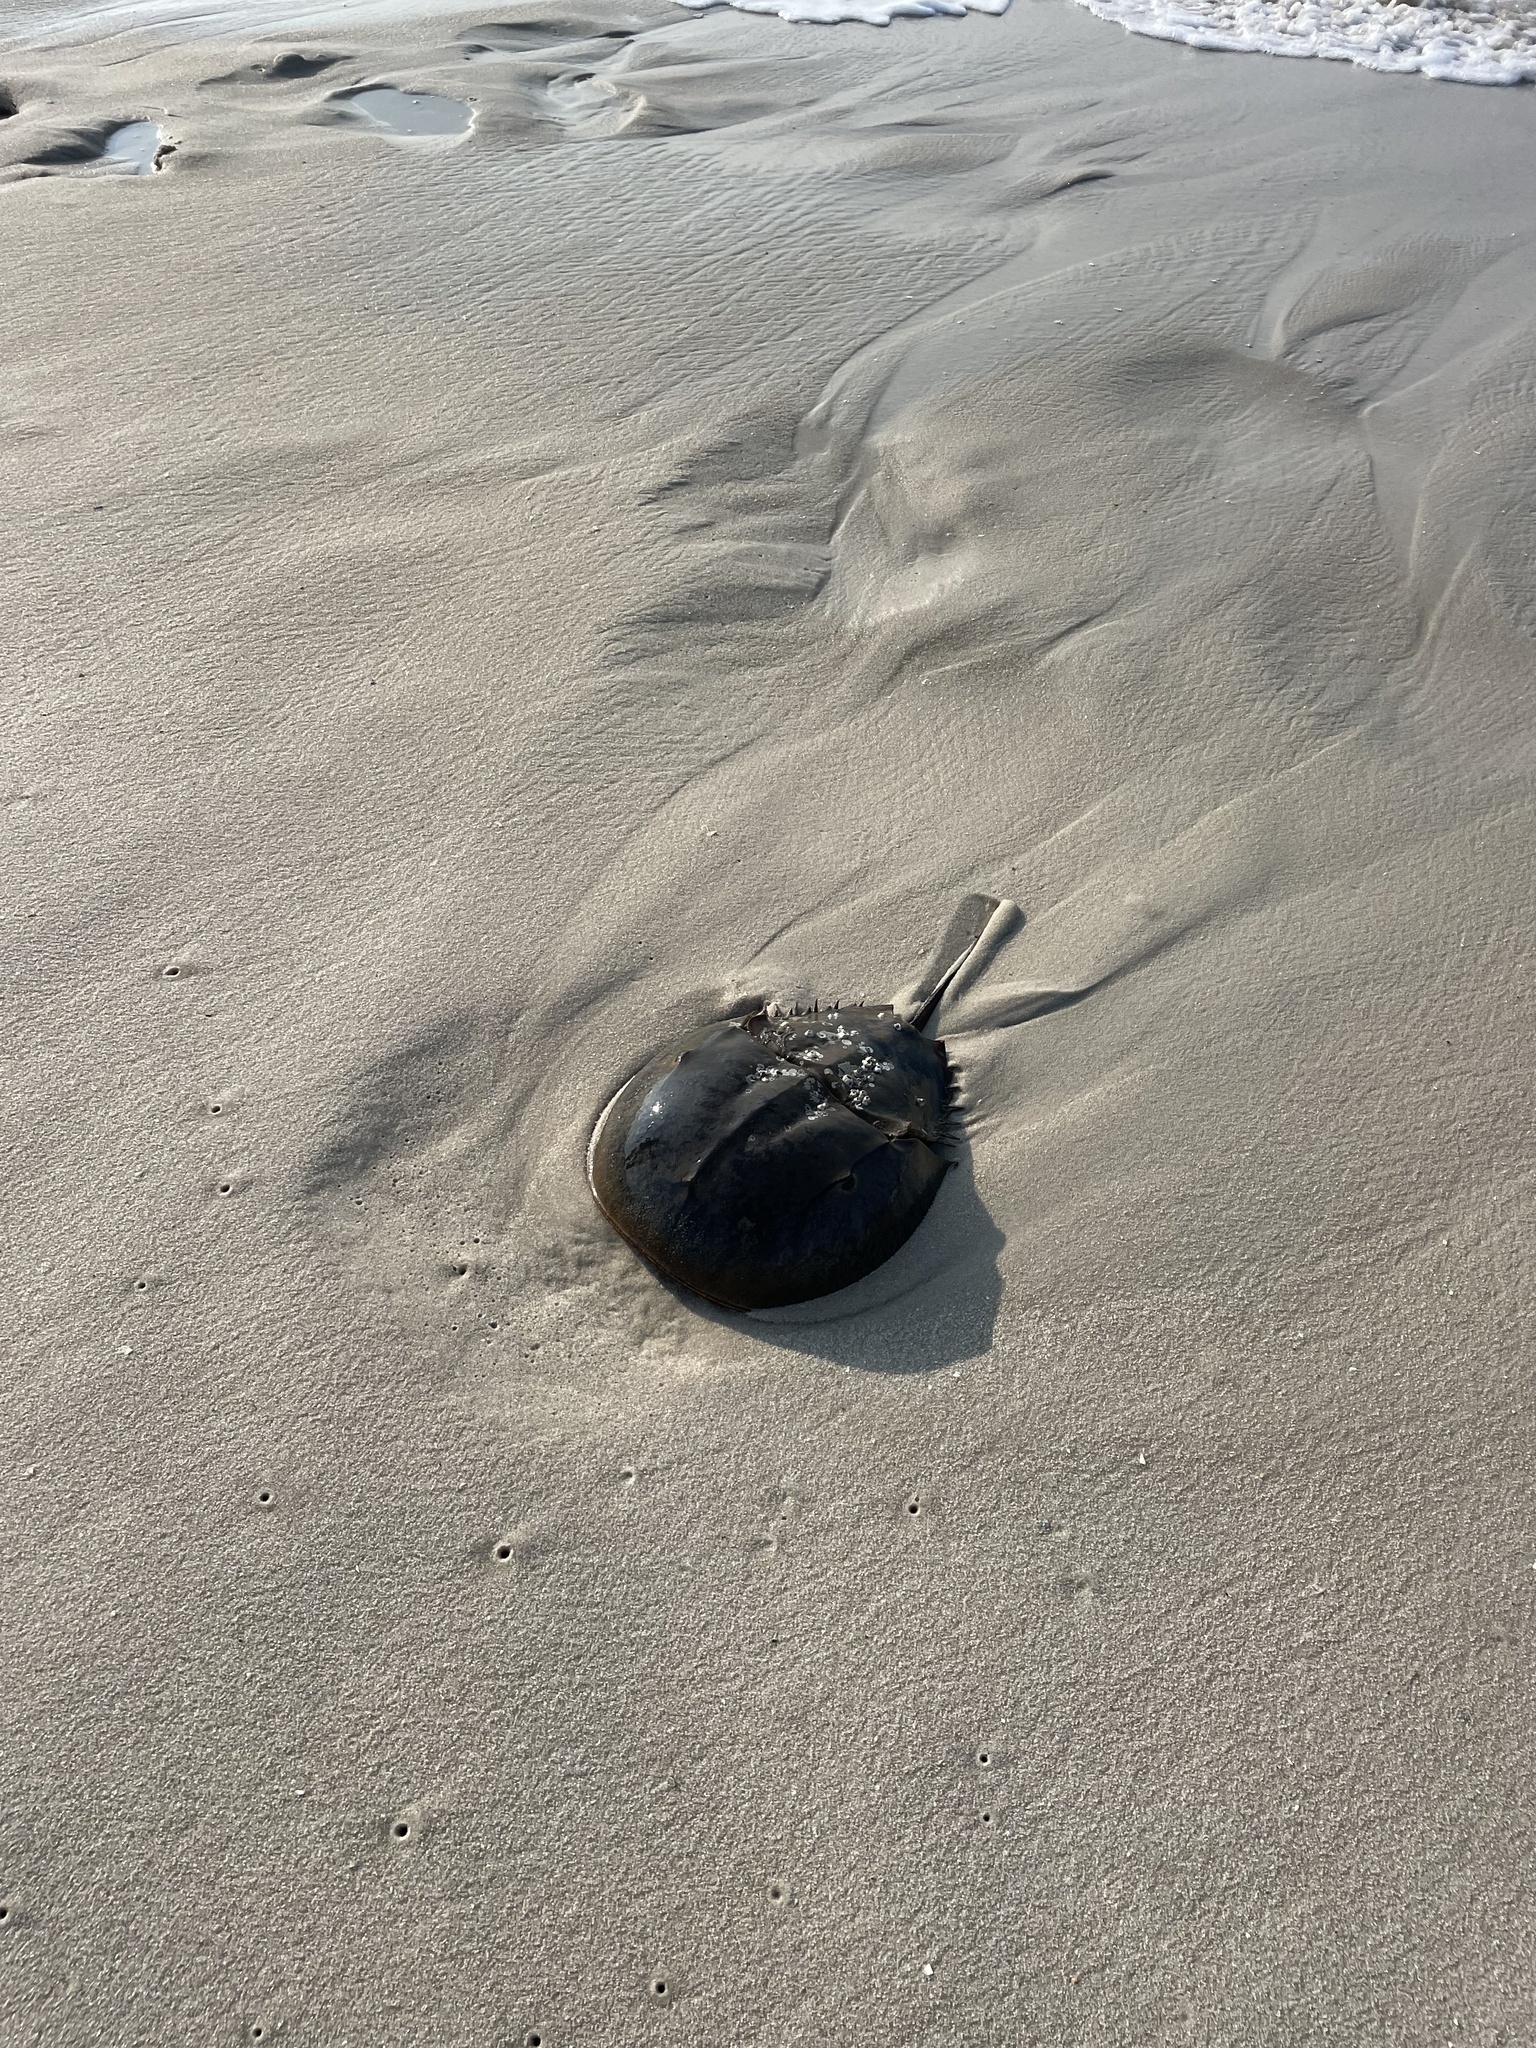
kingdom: Animalia
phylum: Arthropoda
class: Merostomata
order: Xiphosurida
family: Limulidae
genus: Limulus
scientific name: Limulus polyphemus
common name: Horseshoe crab
